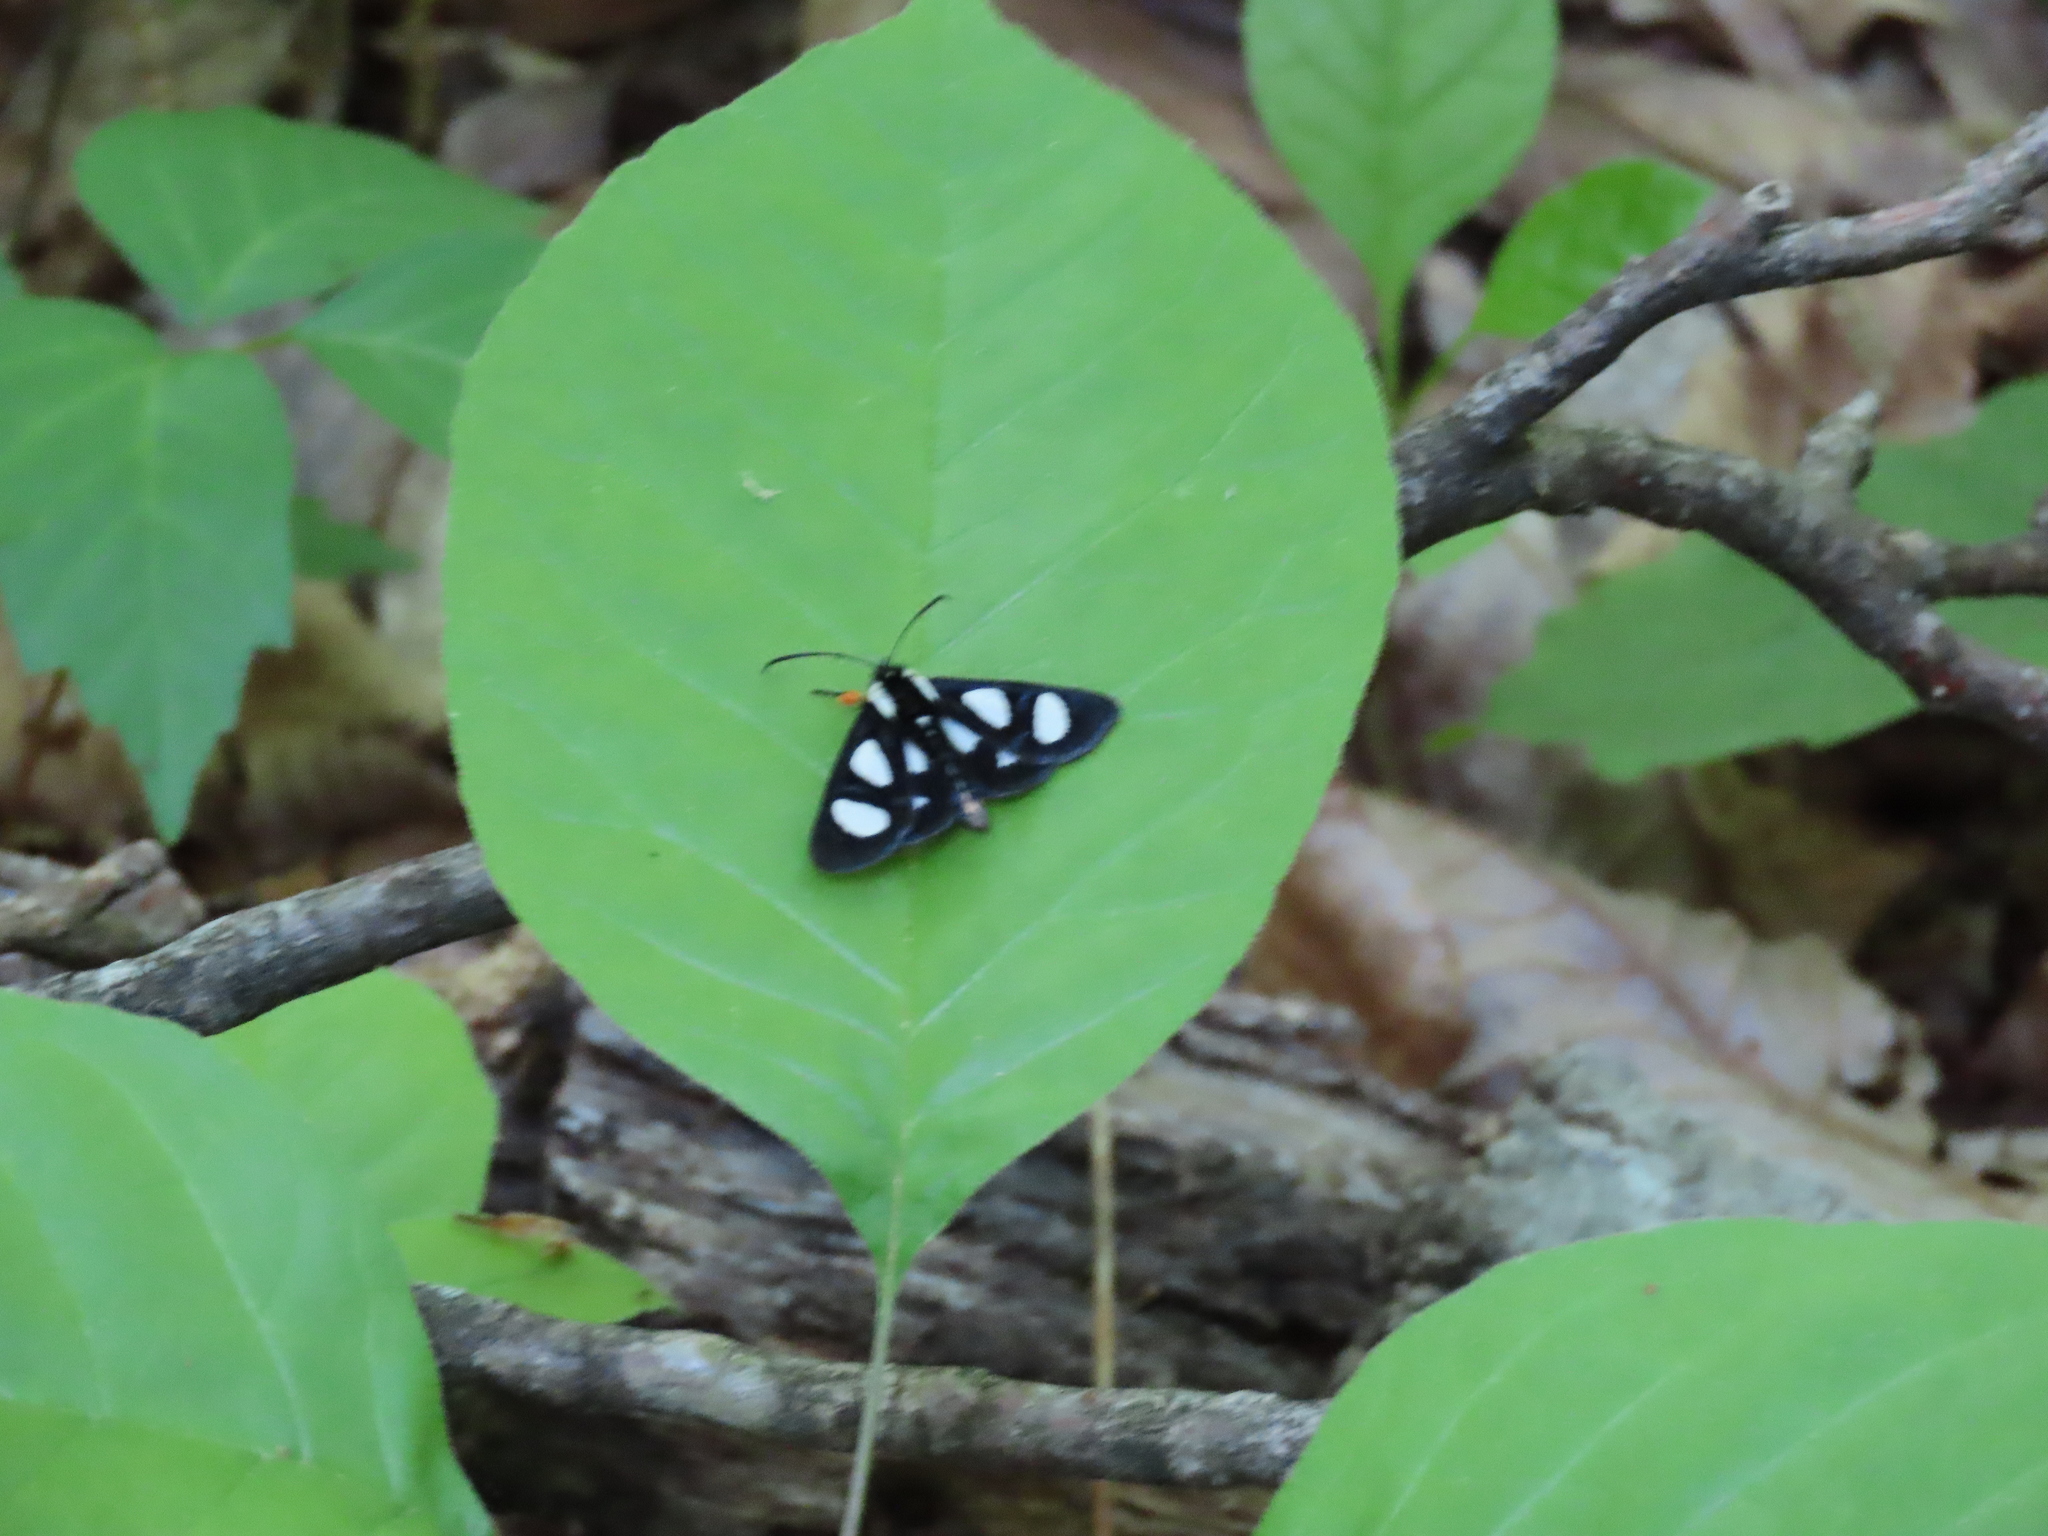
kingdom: Animalia
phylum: Arthropoda
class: Insecta
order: Lepidoptera
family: Noctuidae
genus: Alypia
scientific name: Alypia octomaculata
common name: Eight-spotted forester
